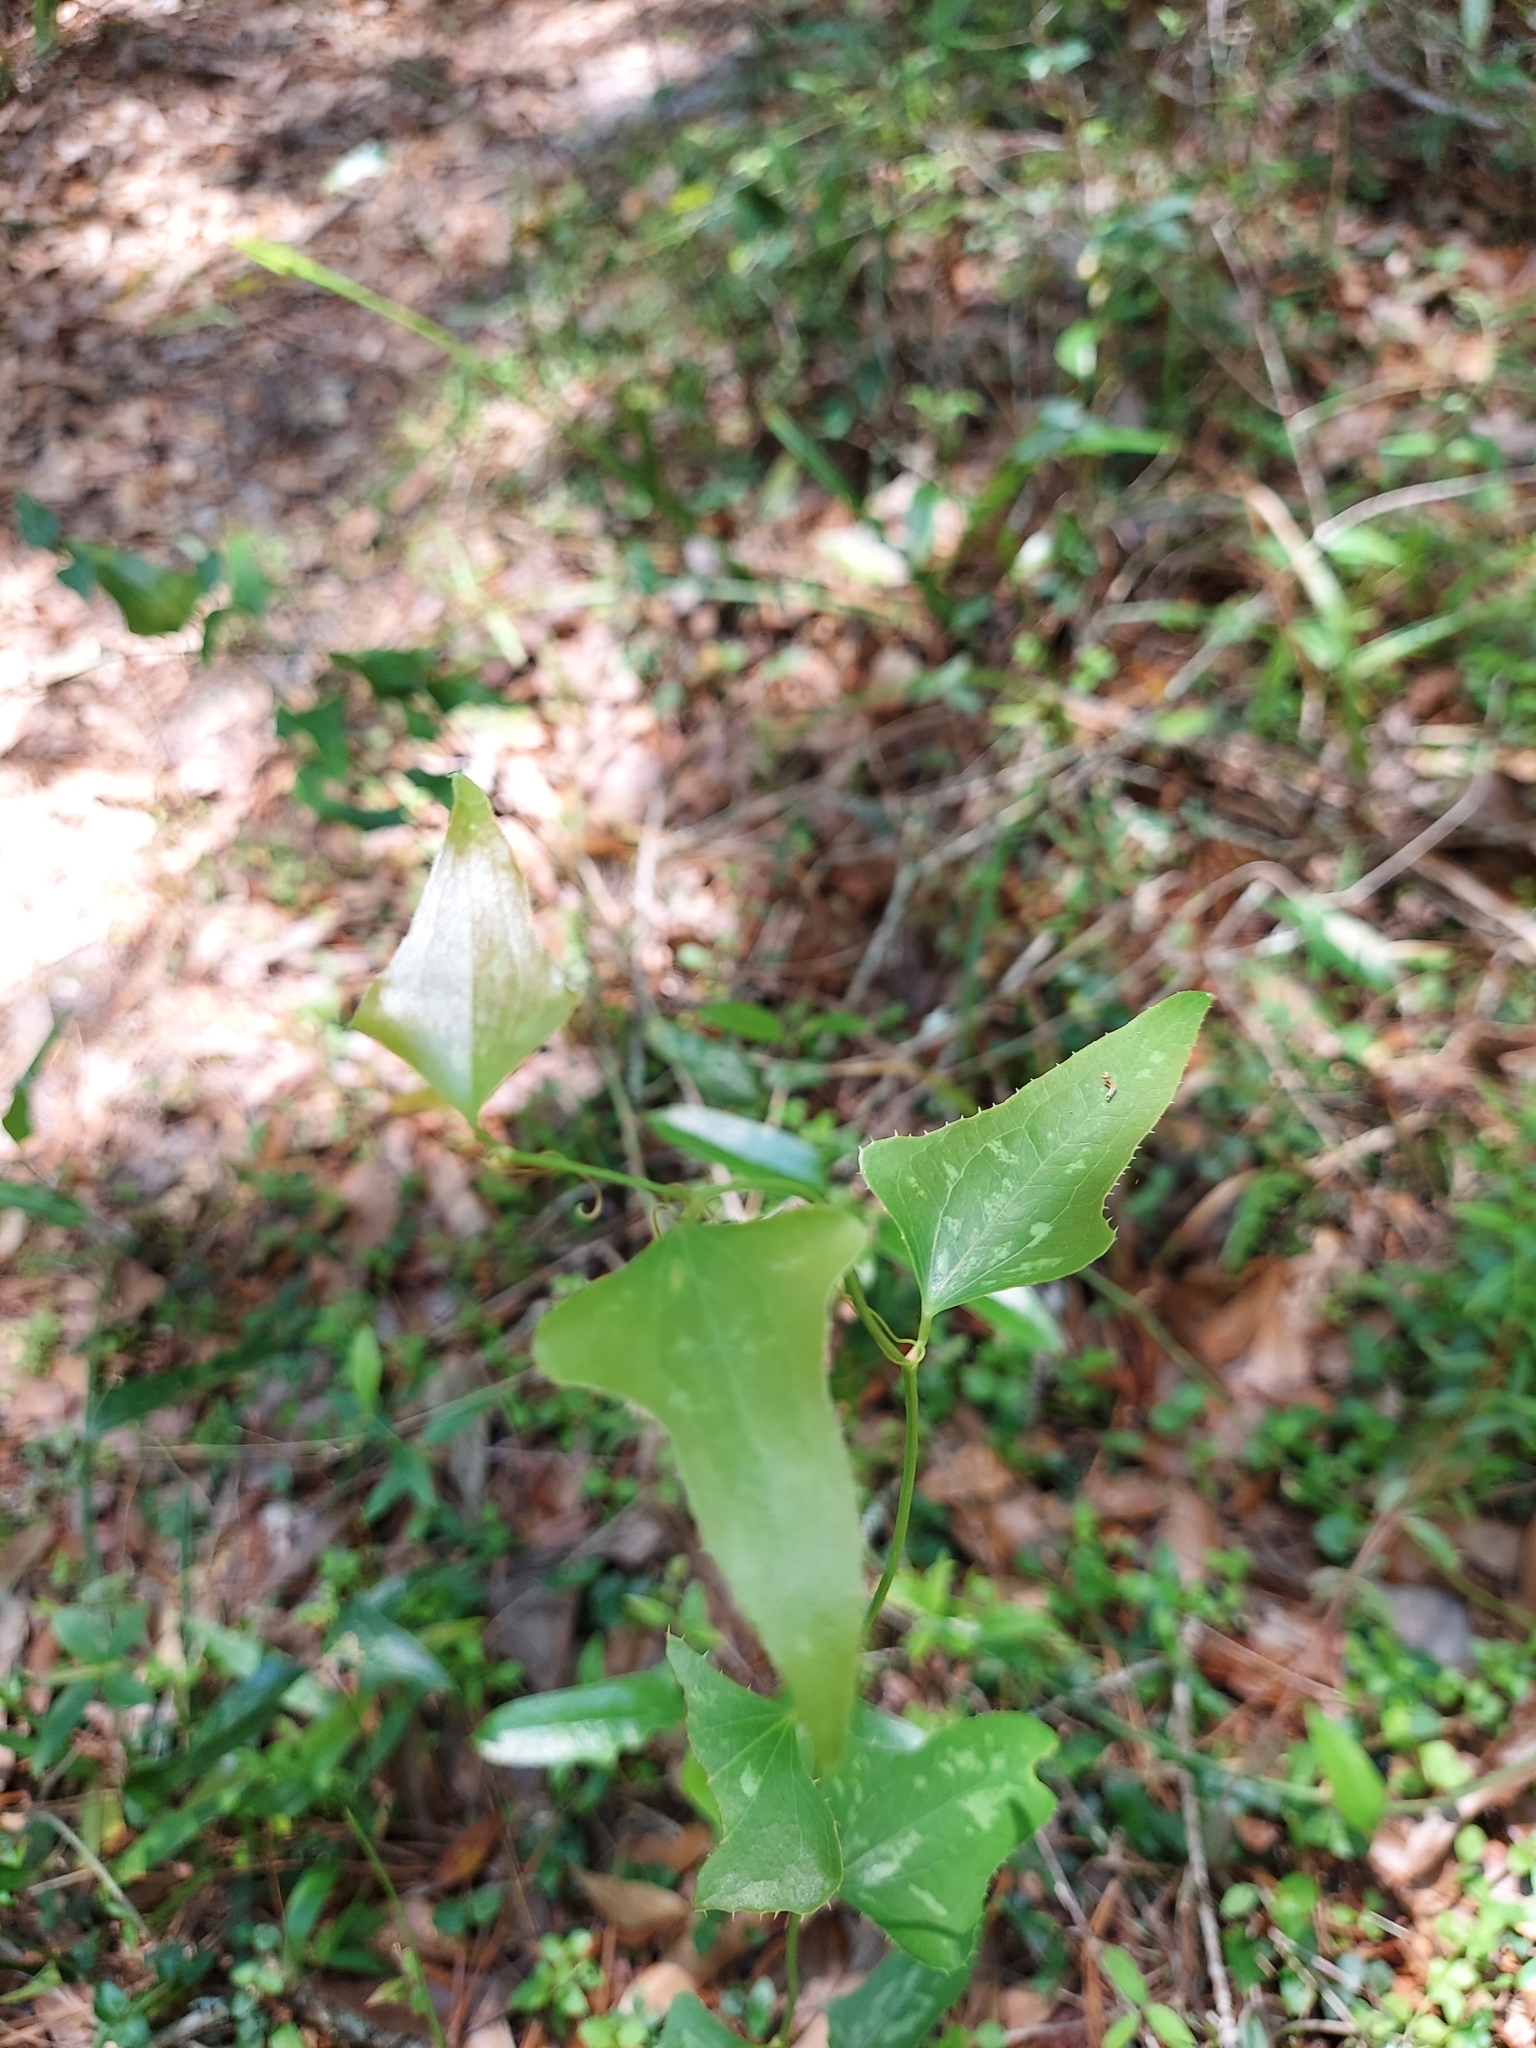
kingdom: Plantae
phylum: Tracheophyta
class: Liliopsida
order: Liliales
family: Smilacaceae
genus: Smilax
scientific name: Smilax bona-nox
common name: Catbrier
